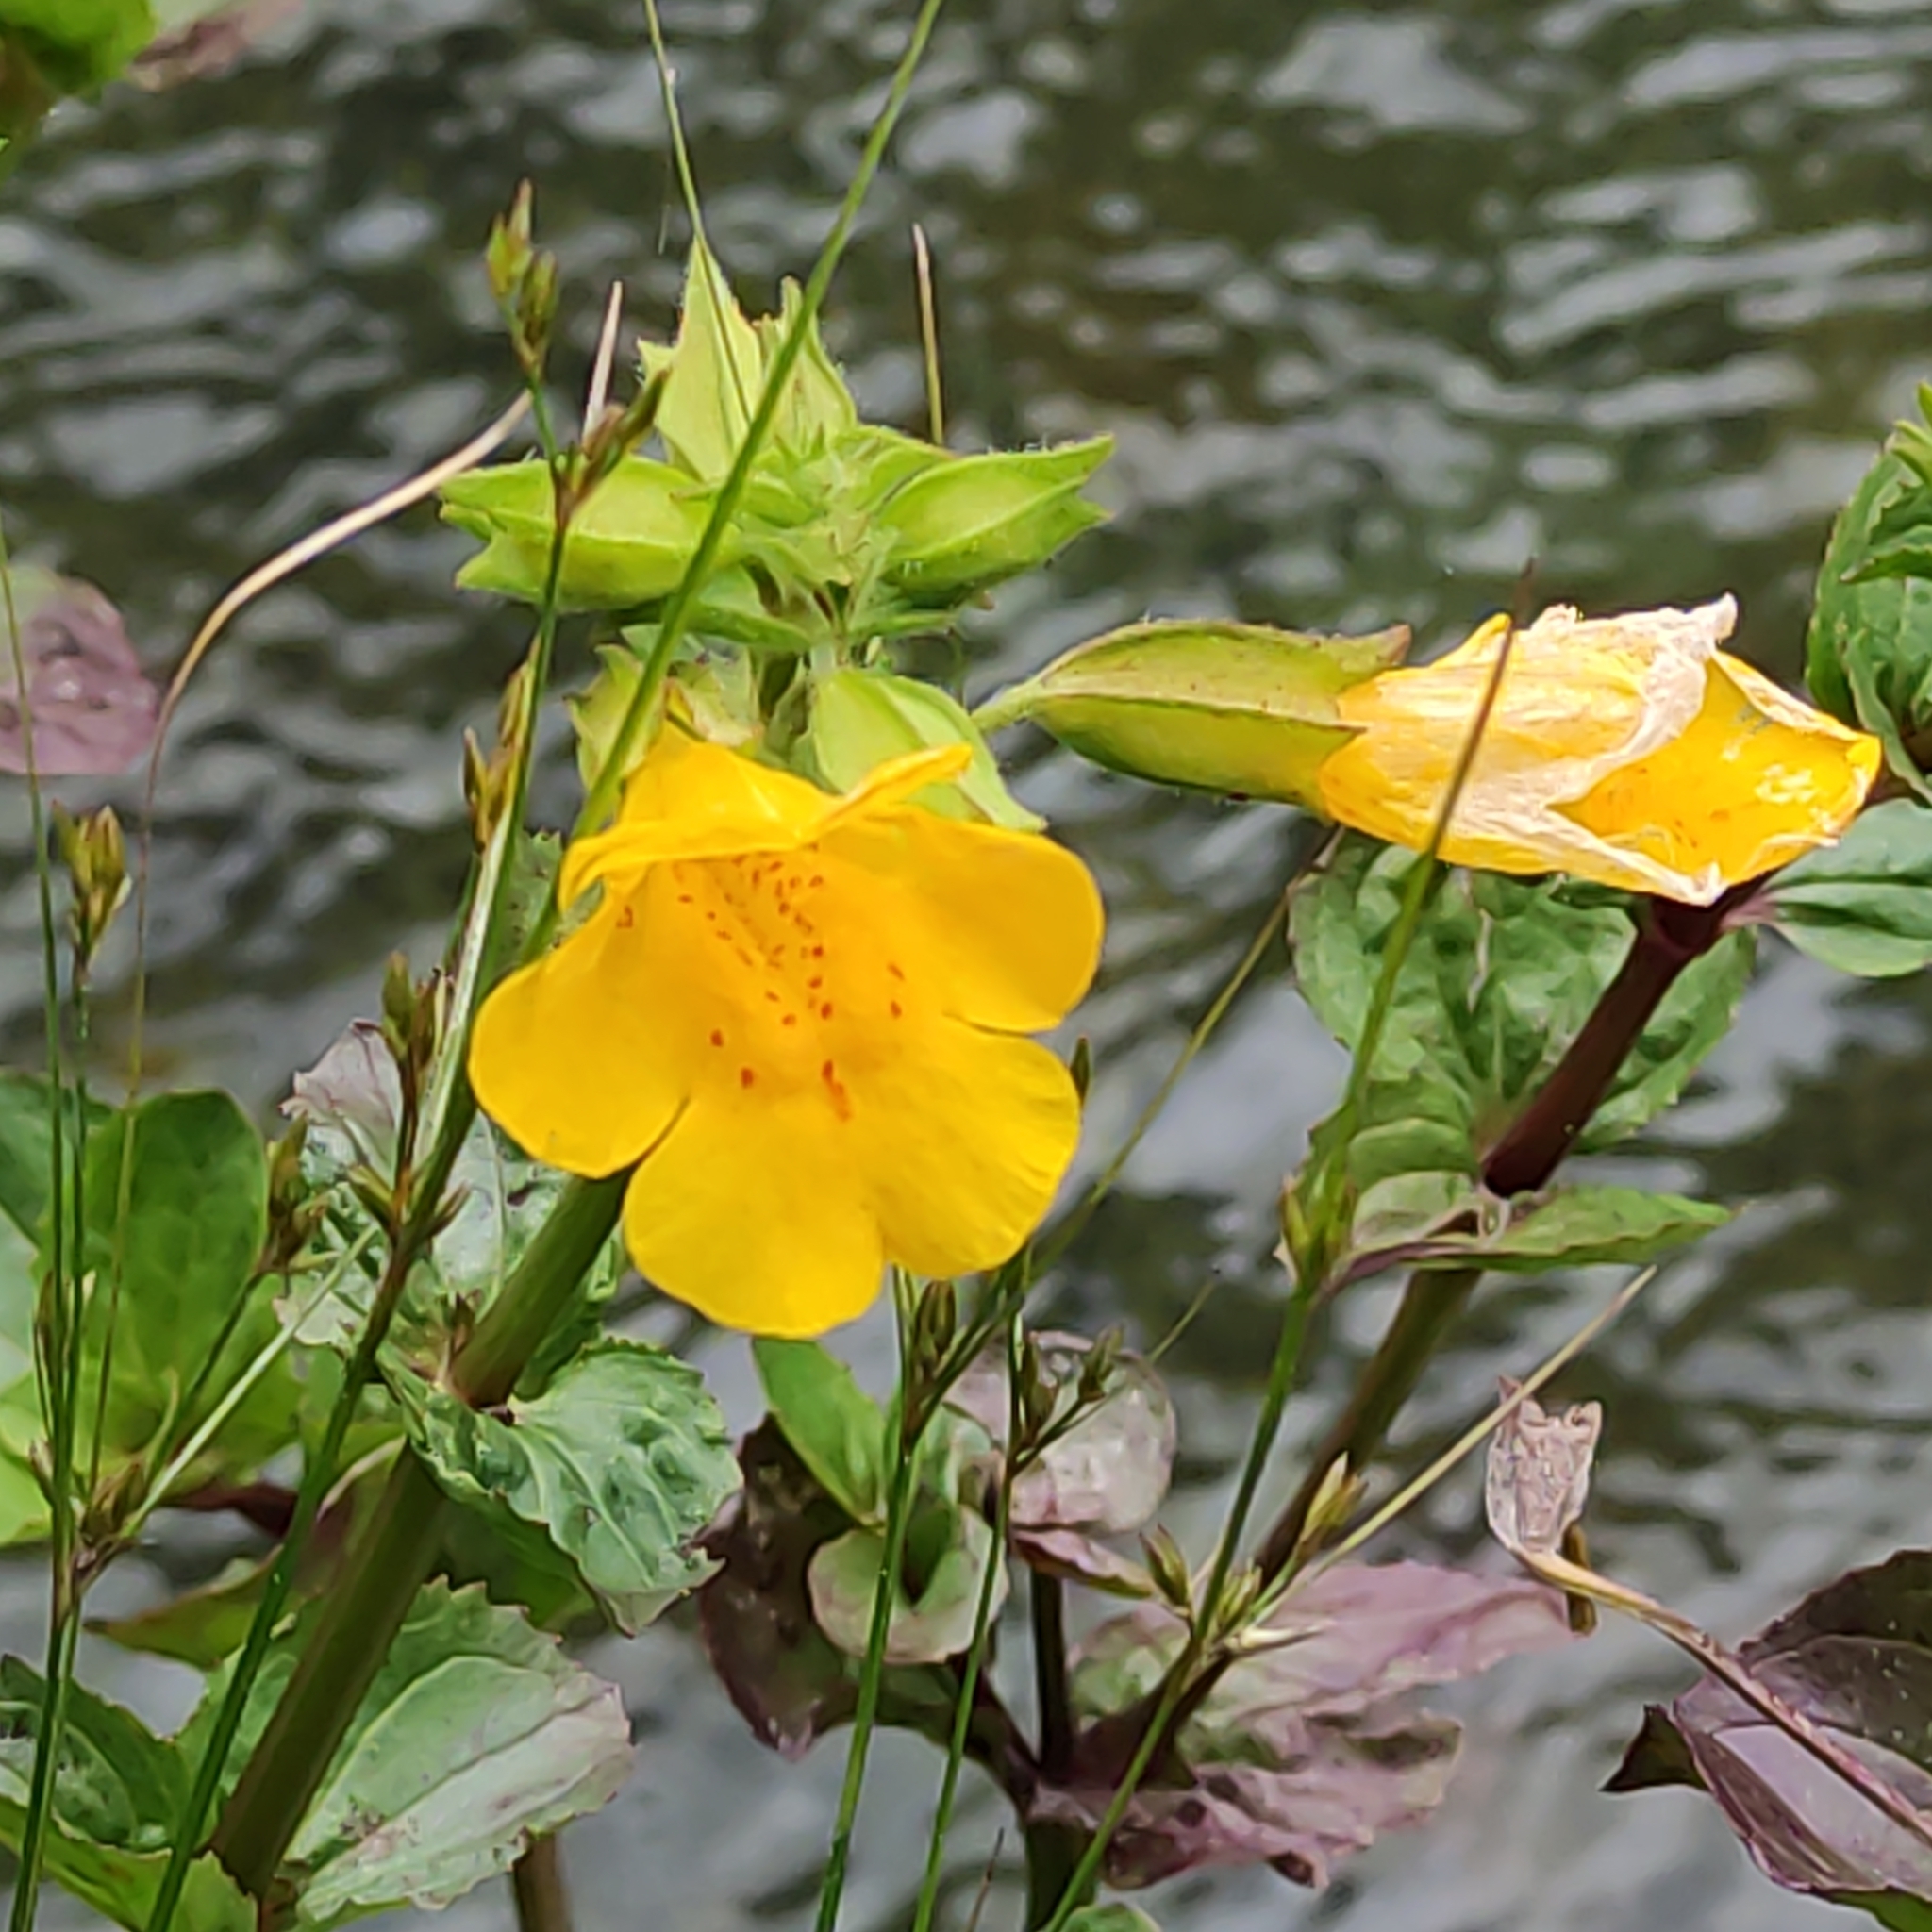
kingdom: Plantae
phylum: Tracheophyta
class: Magnoliopsida
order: Lamiales
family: Phrymaceae
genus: Erythranthe
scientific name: Erythranthe guttata
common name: Monkeyflower
